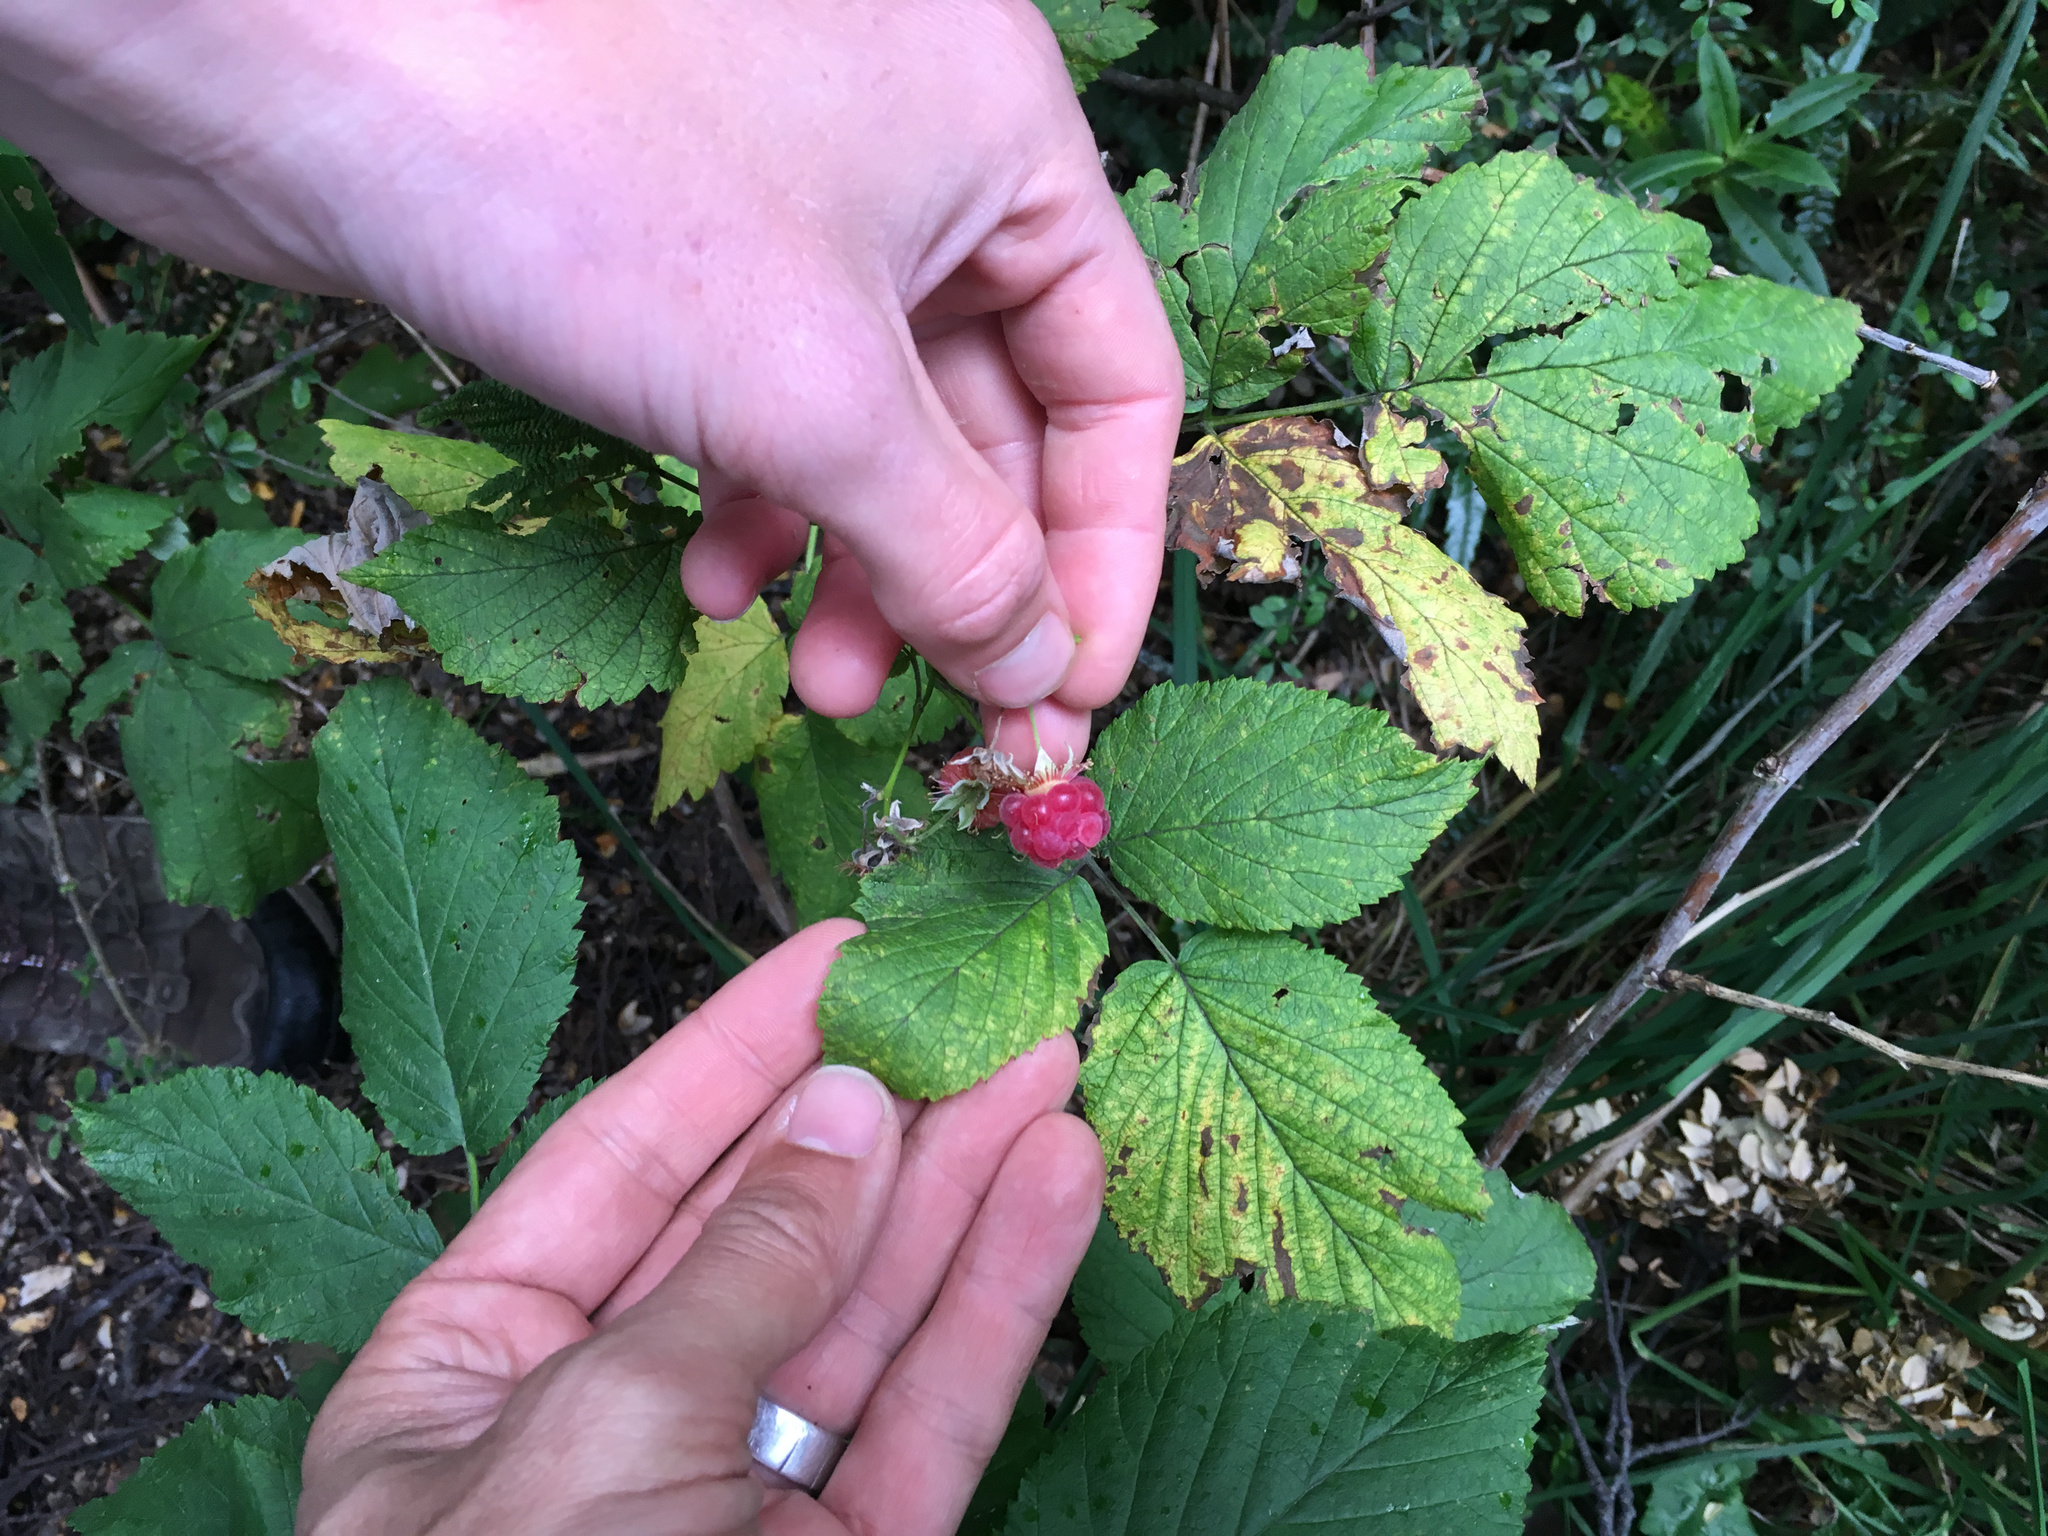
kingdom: Plantae
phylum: Tracheophyta
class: Magnoliopsida
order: Rosales
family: Rosaceae
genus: Rubus
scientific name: Rubus idaeus
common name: Raspberry
